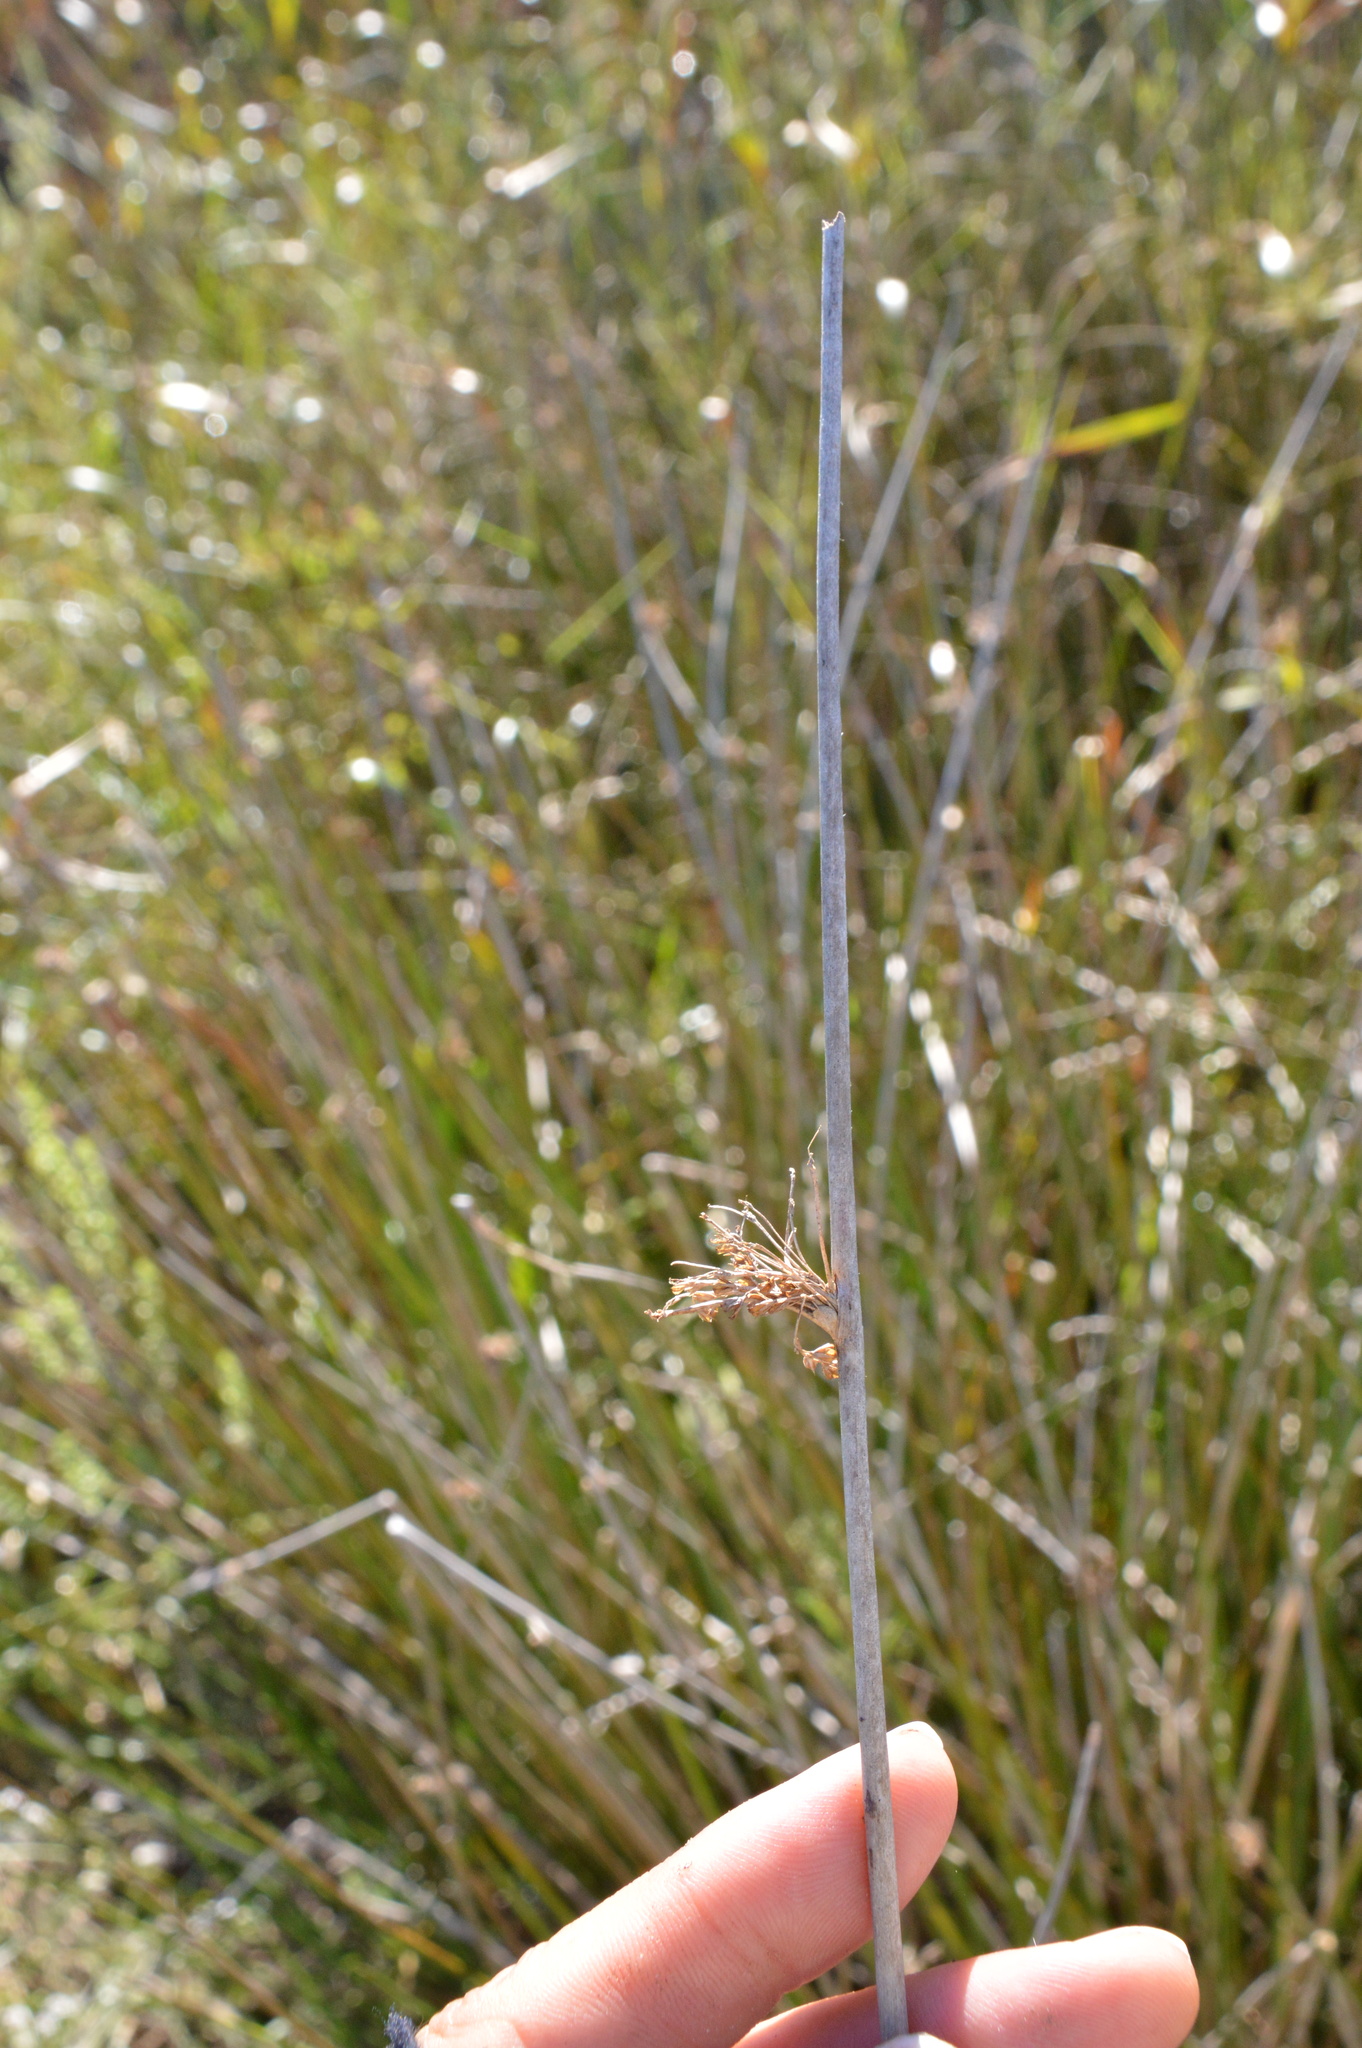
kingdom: Plantae
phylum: Tracheophyta
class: Liliopsida
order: Poales
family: Juncaceae
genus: Juncus
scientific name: Juncus effusus
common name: Soft rush
